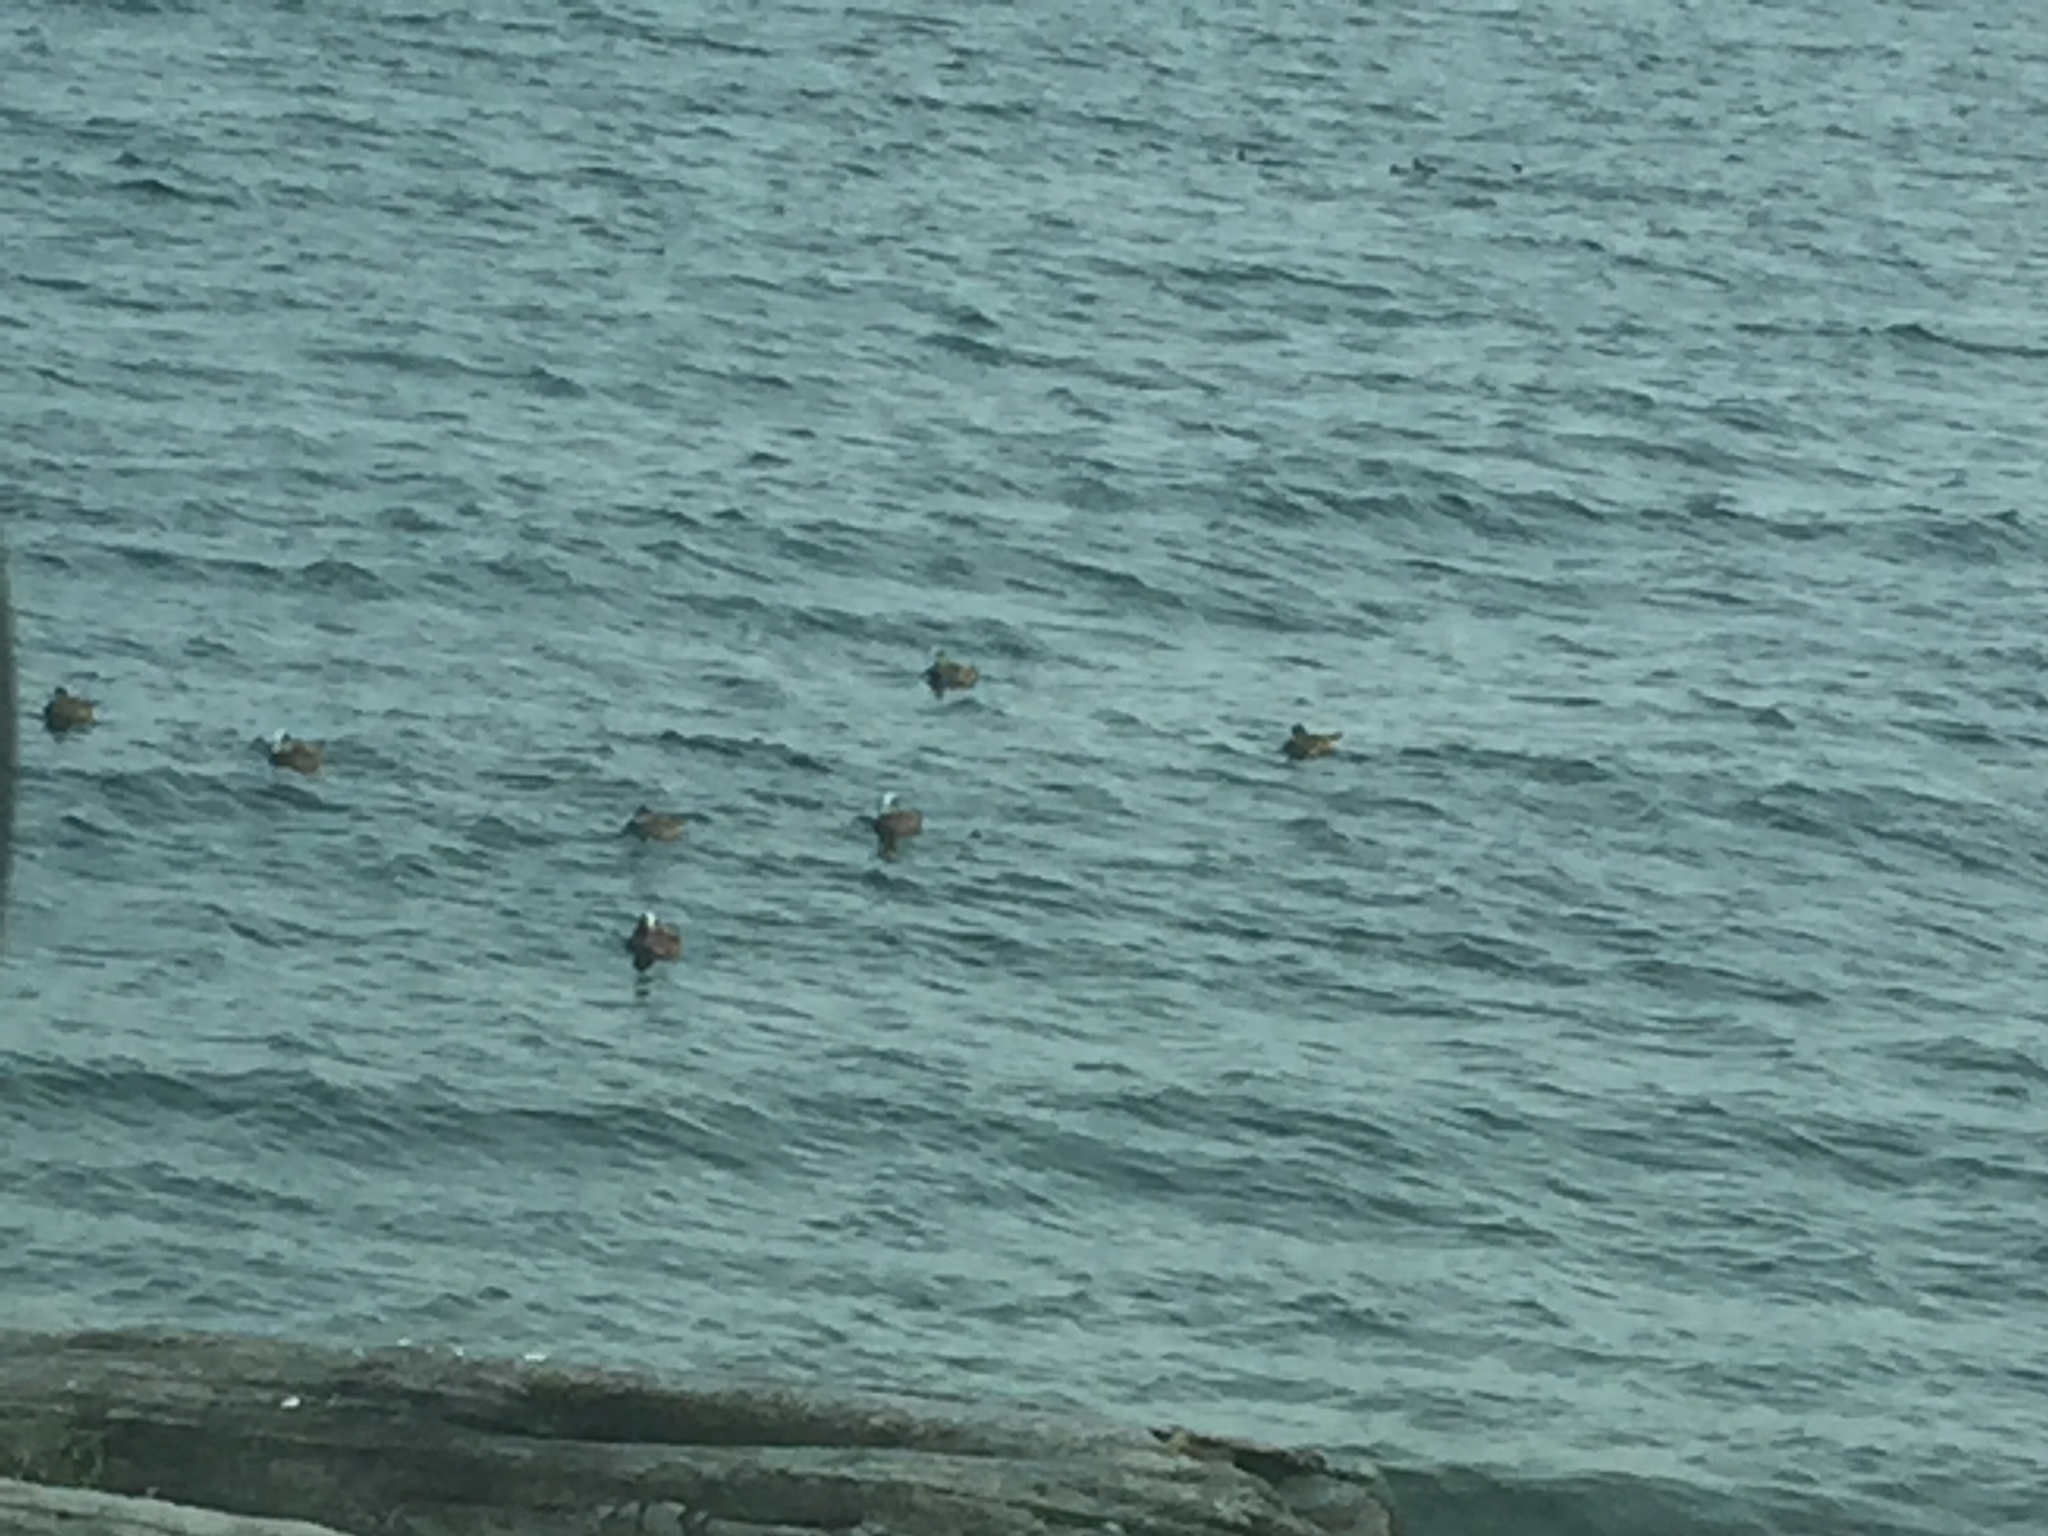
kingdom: Animalia
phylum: Chordata
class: Aves
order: Anseriformes
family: Anatidae
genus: Mareca
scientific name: Mareca americana
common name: American wigeon
